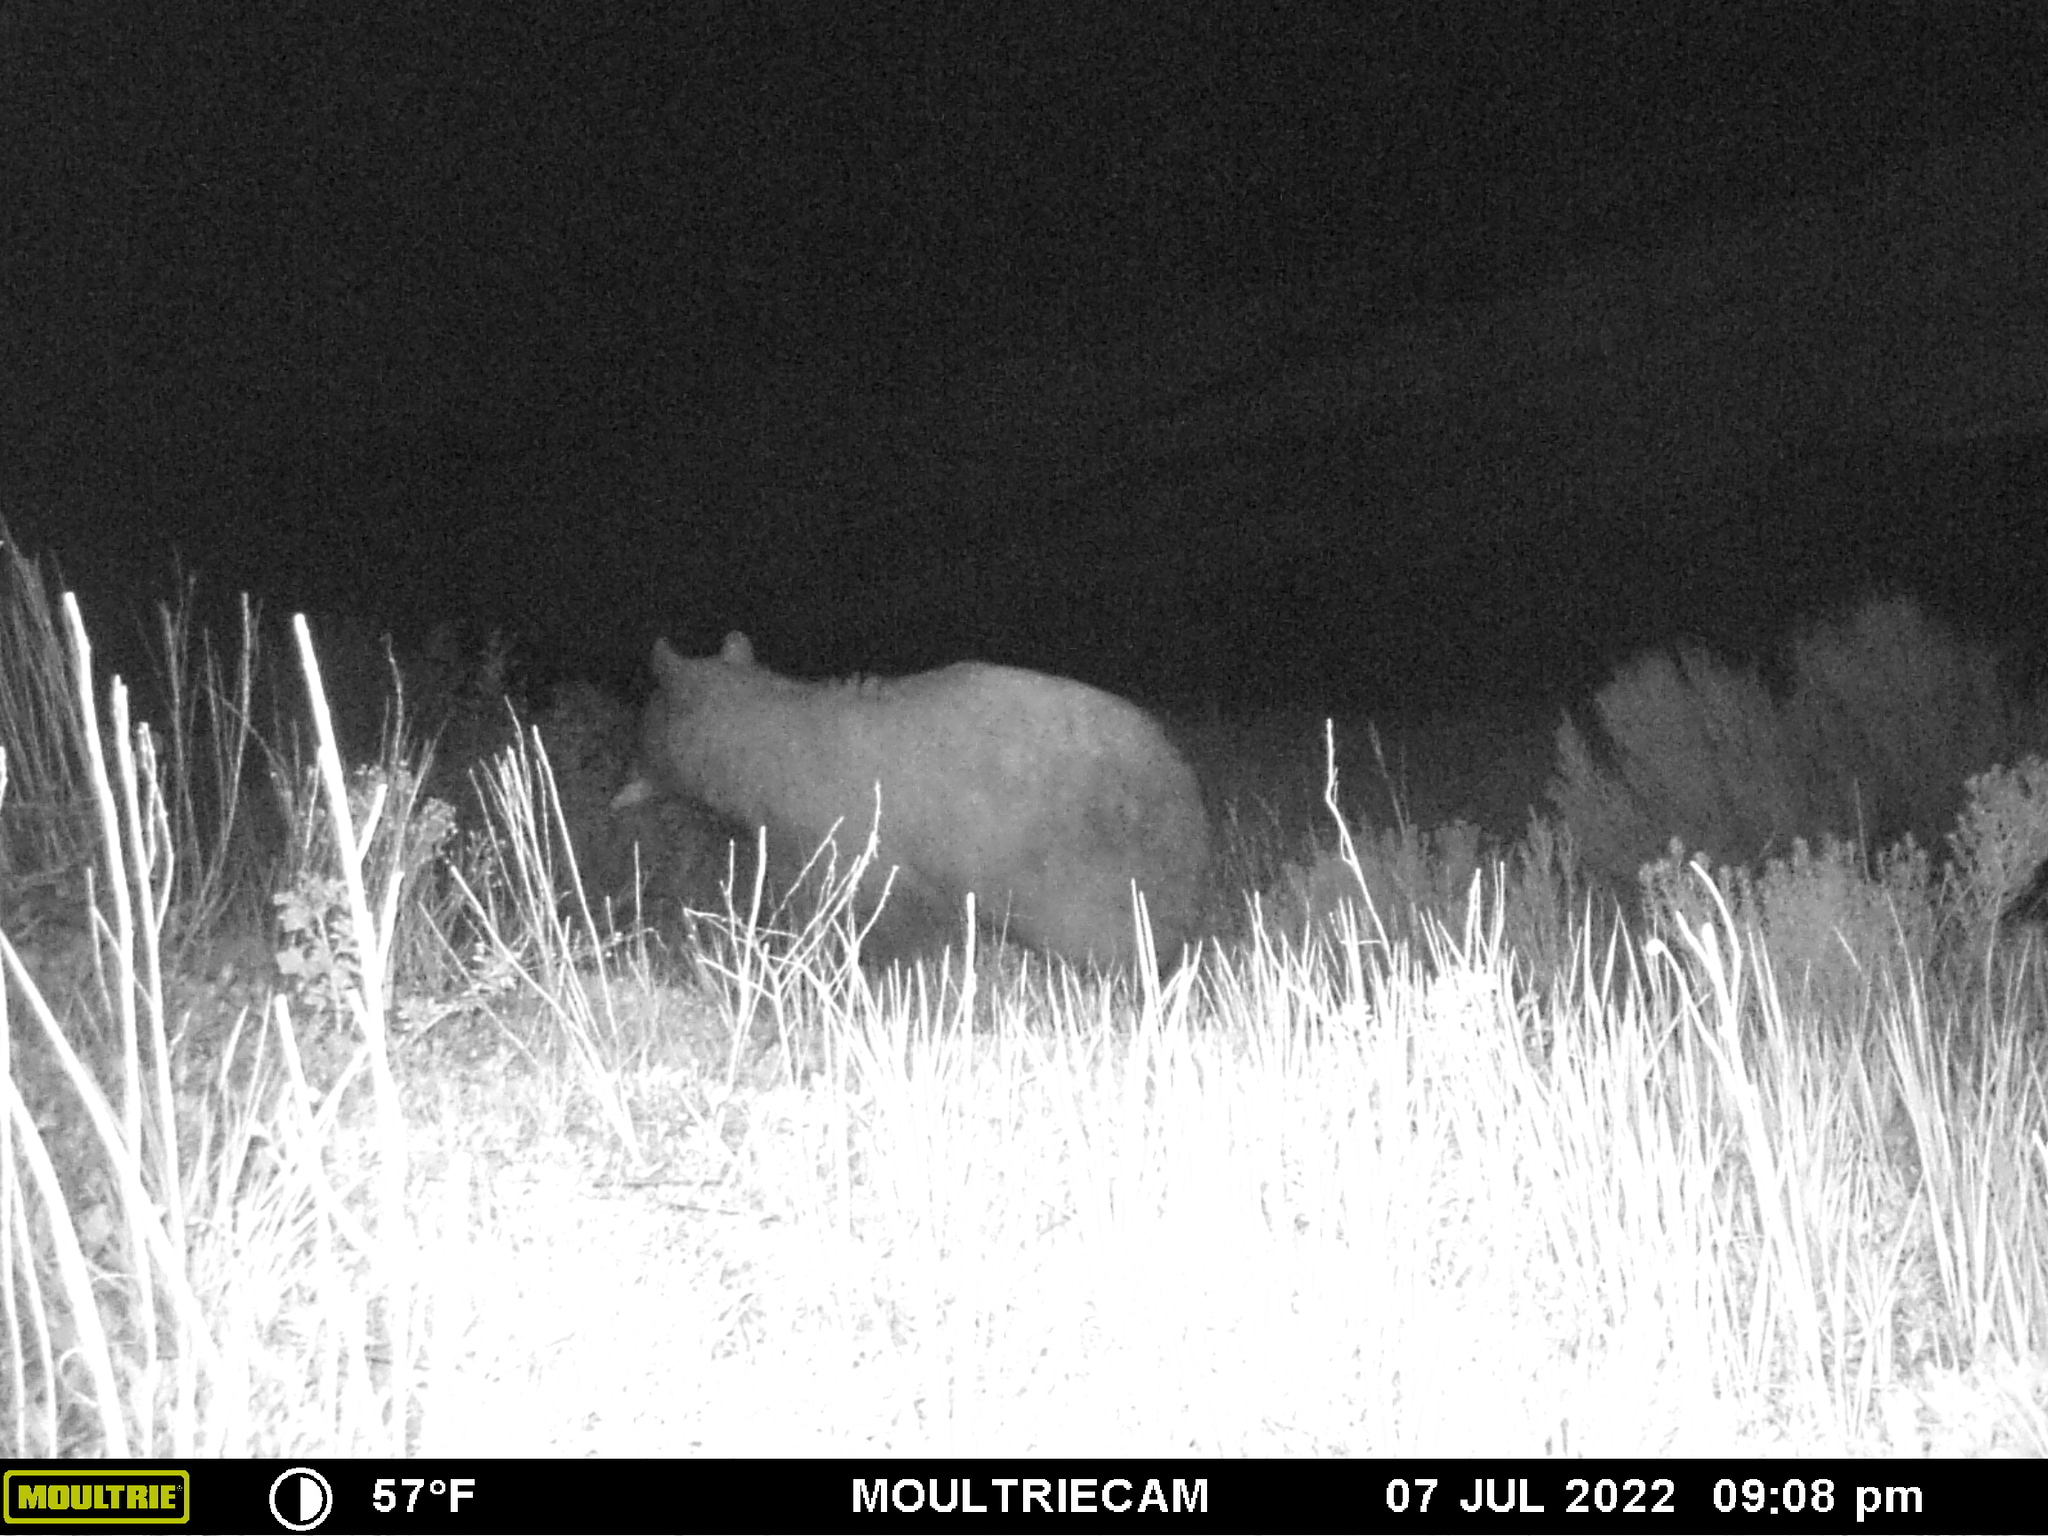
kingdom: Animalia
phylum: Chordata
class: Mammalia
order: Carnivora
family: Ursidae
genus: Ursus
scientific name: Ursus americanus
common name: American black bear
